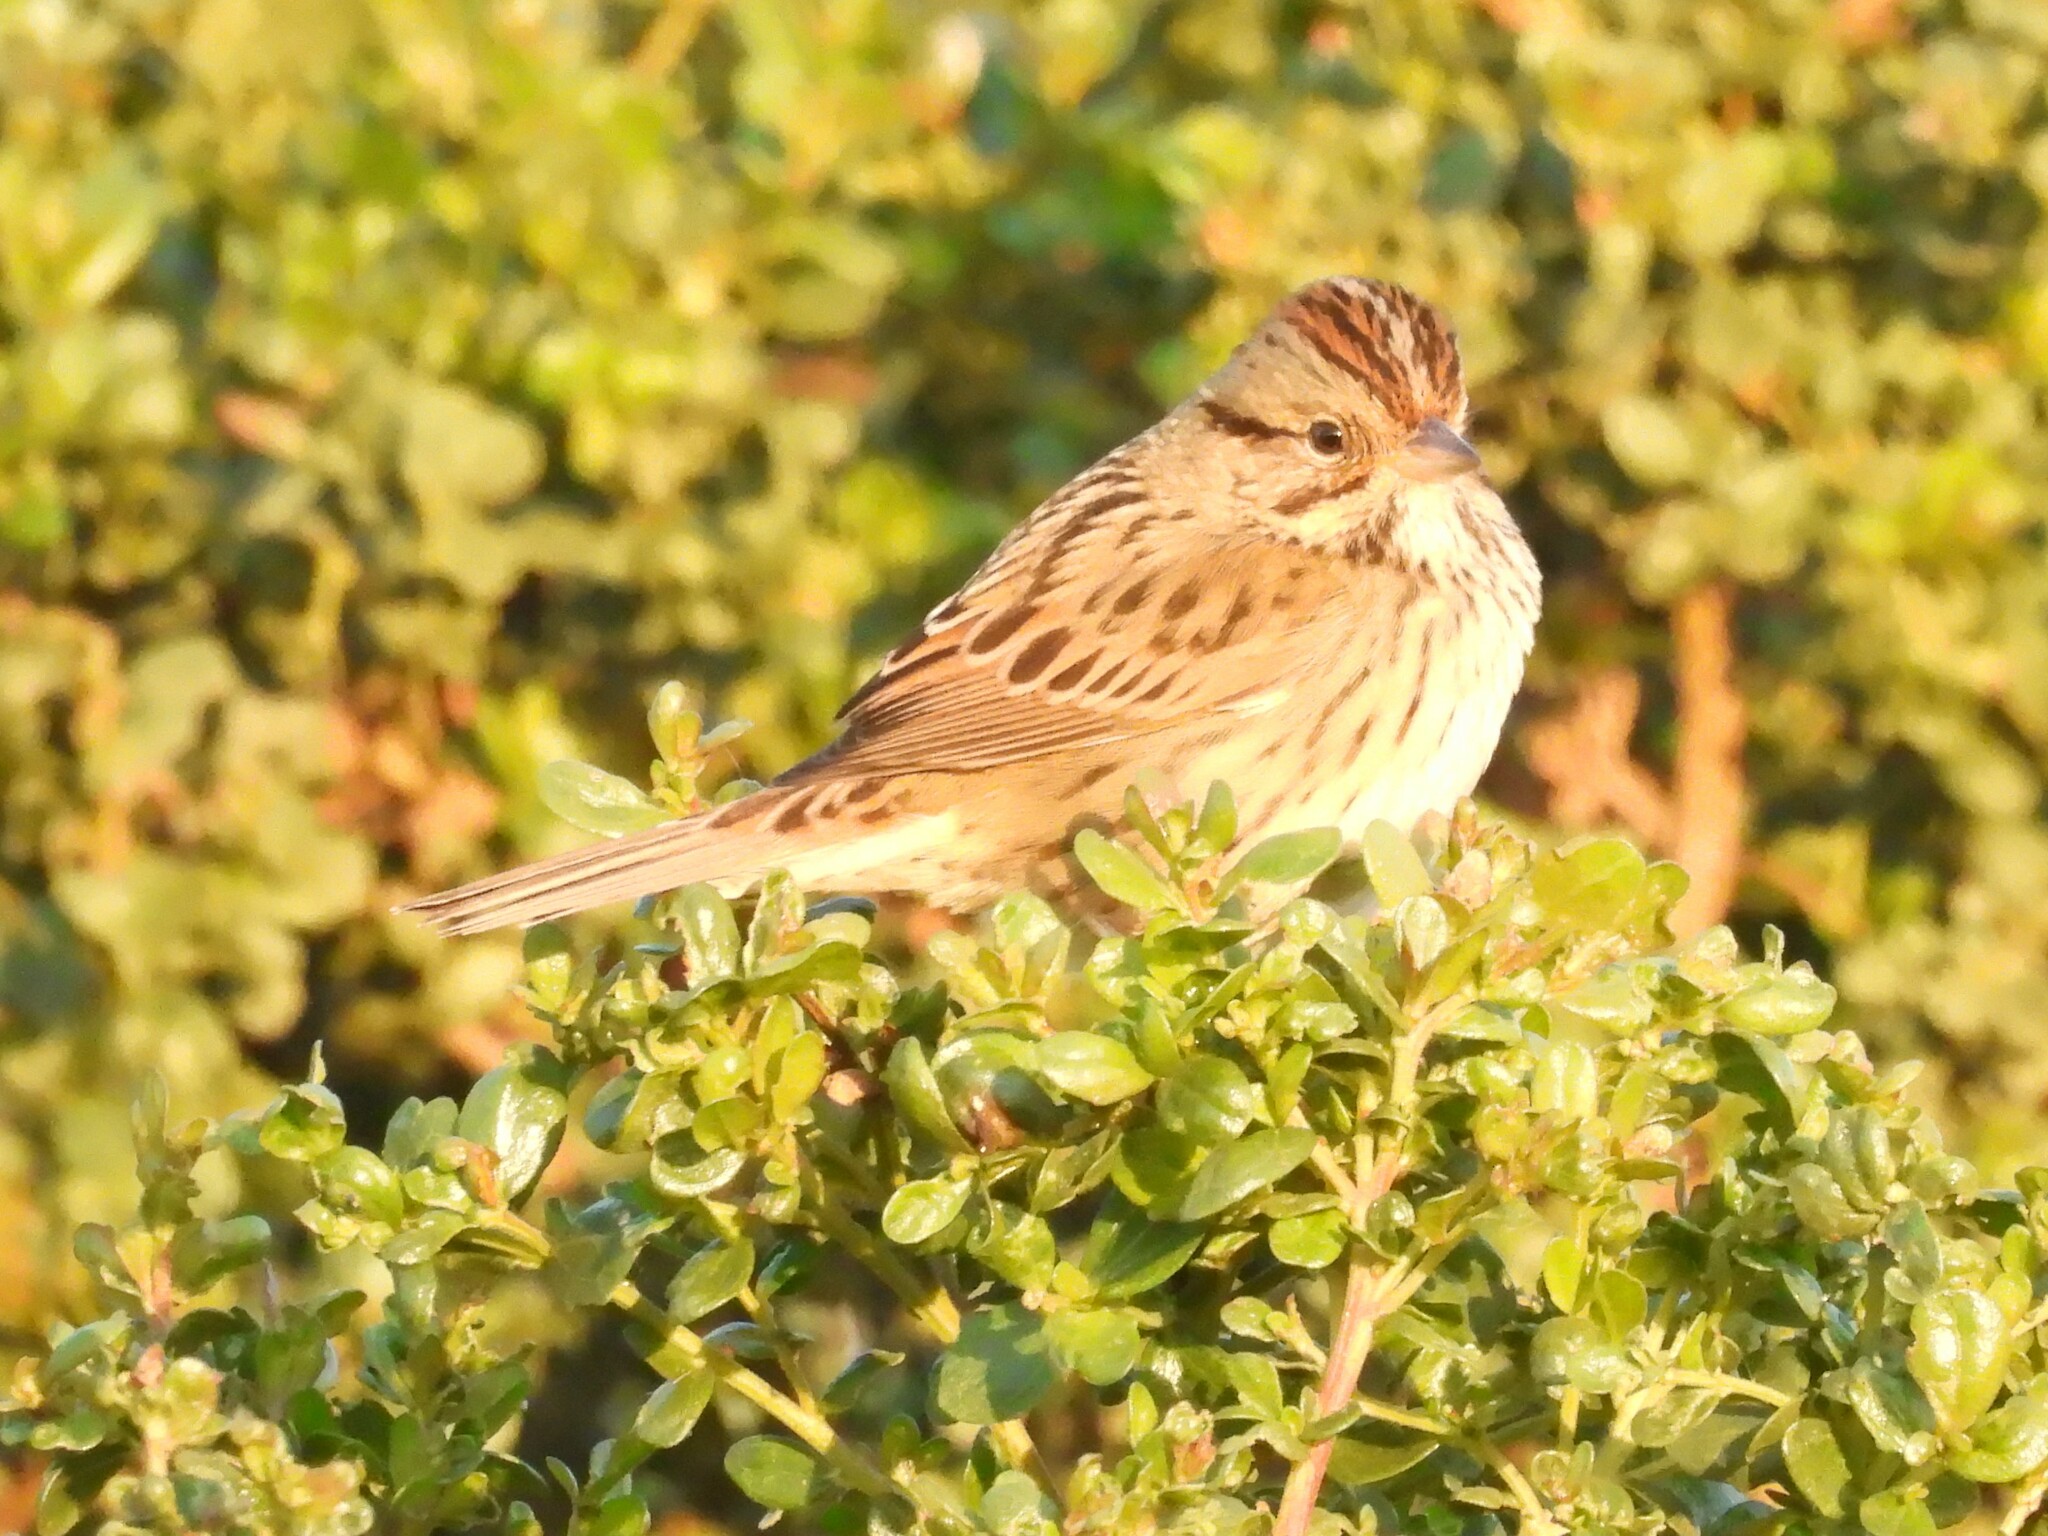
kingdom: Animalia
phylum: Chordata
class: Aves
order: Passeriformes
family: Passerellidae
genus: Melospiza
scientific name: Melospiza lincolnii
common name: Lincoln's sparrow
